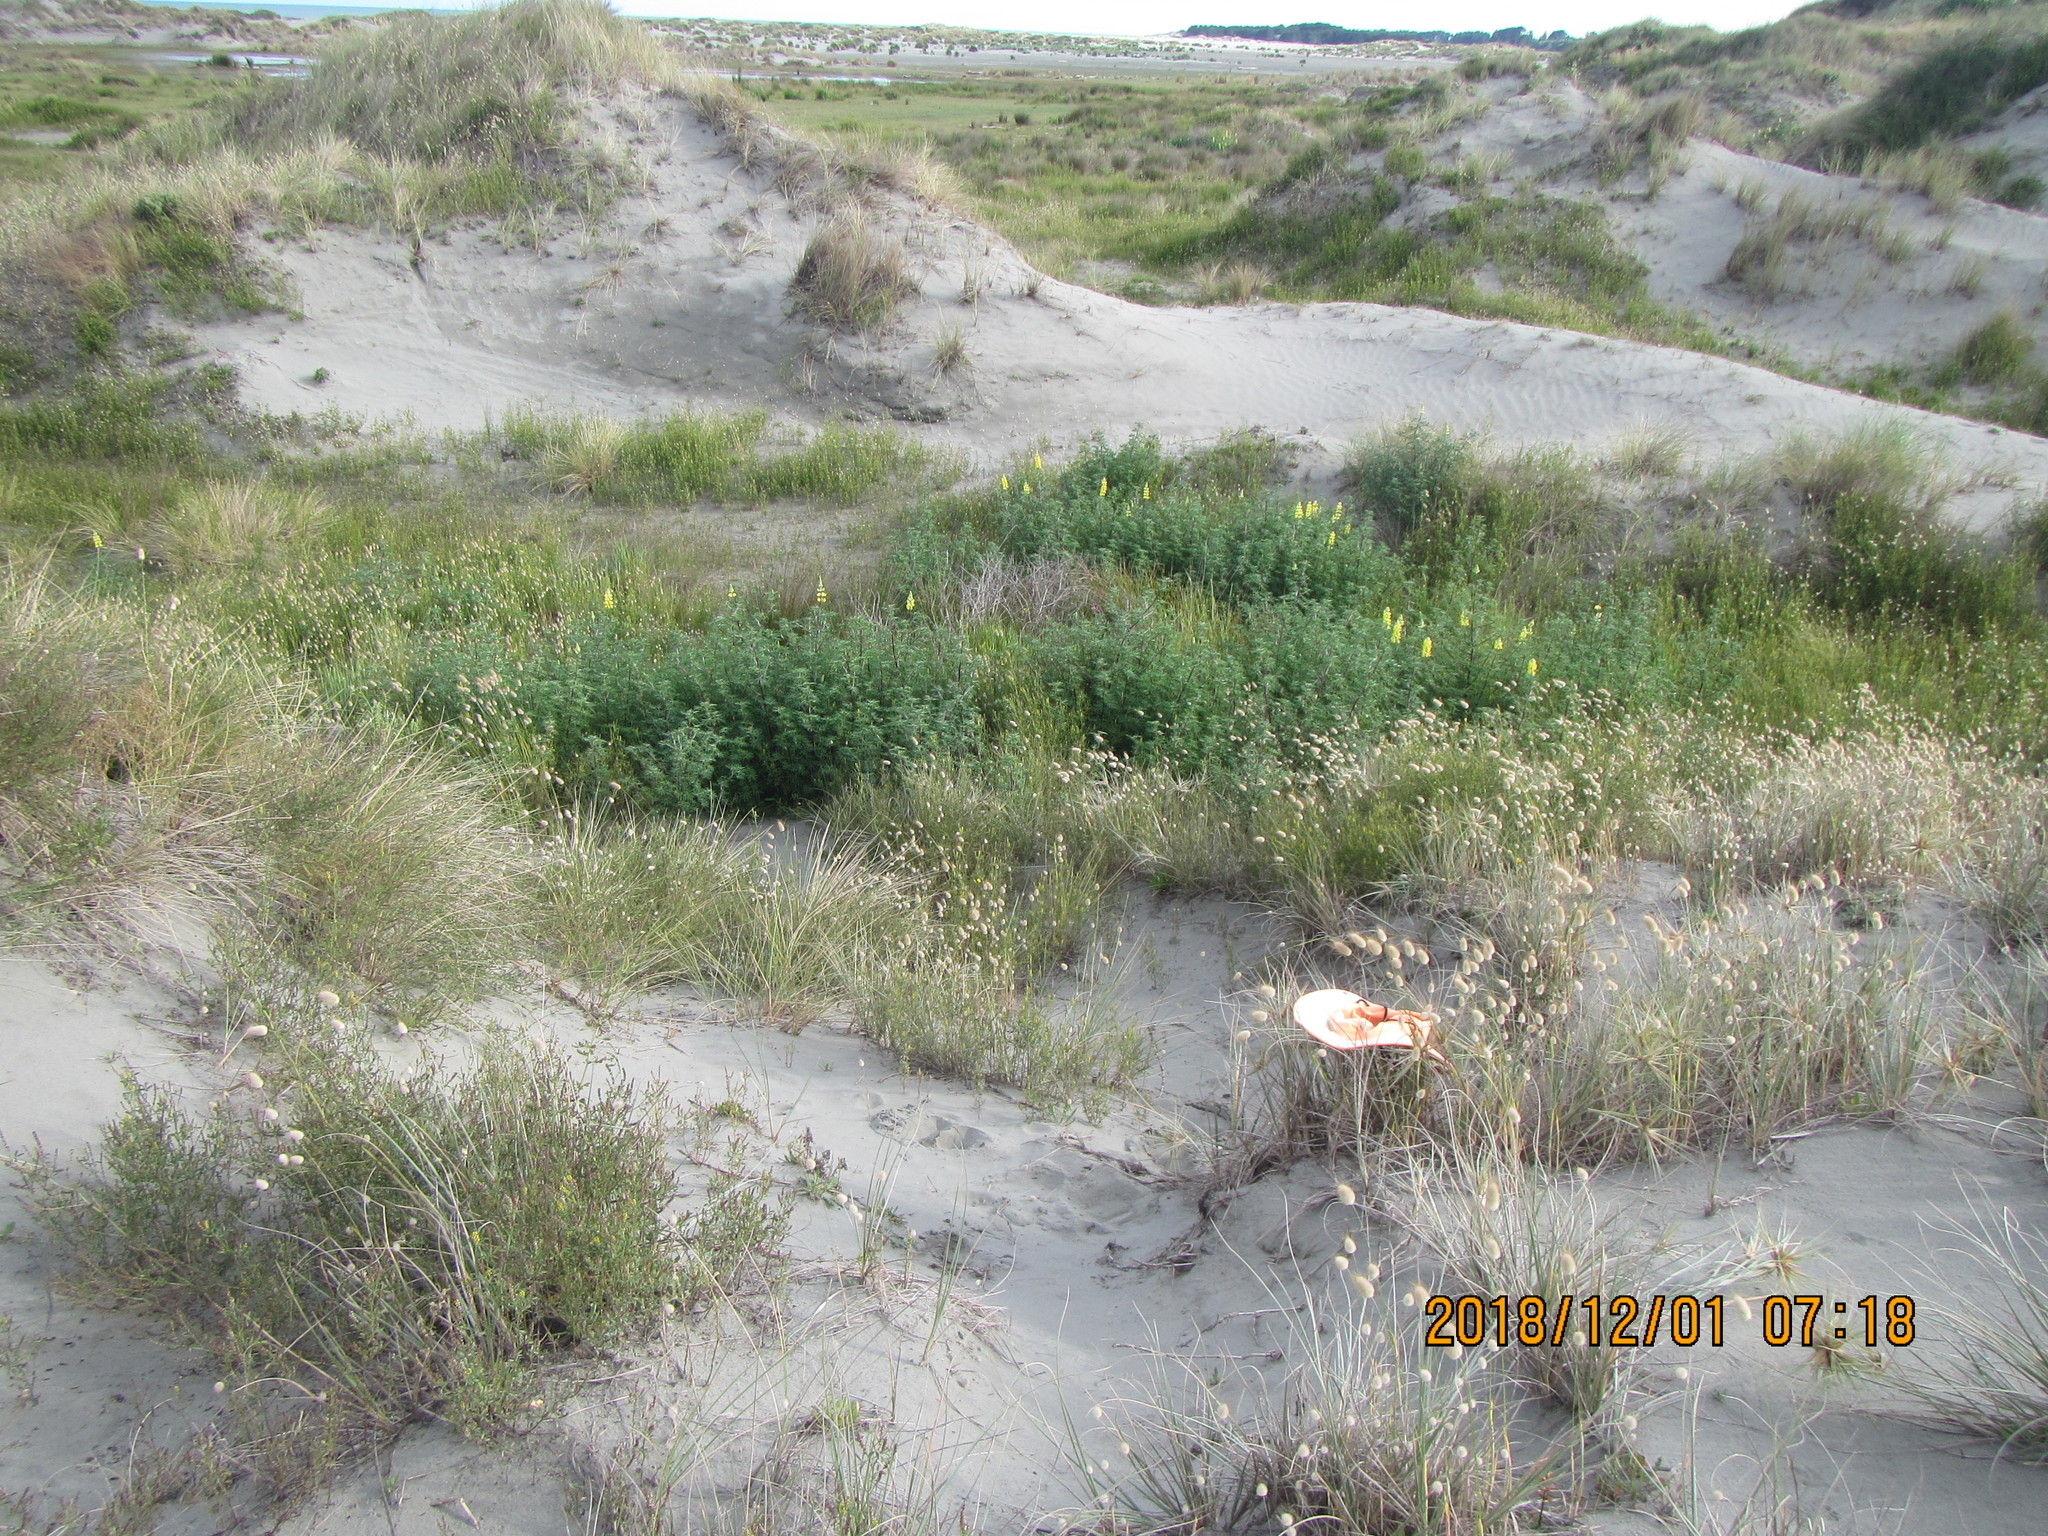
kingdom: Animalia
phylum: Arthropoda
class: Arachnida
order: Araneae
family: Theridiidae
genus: Latrodectus
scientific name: Latrodectus katipo
